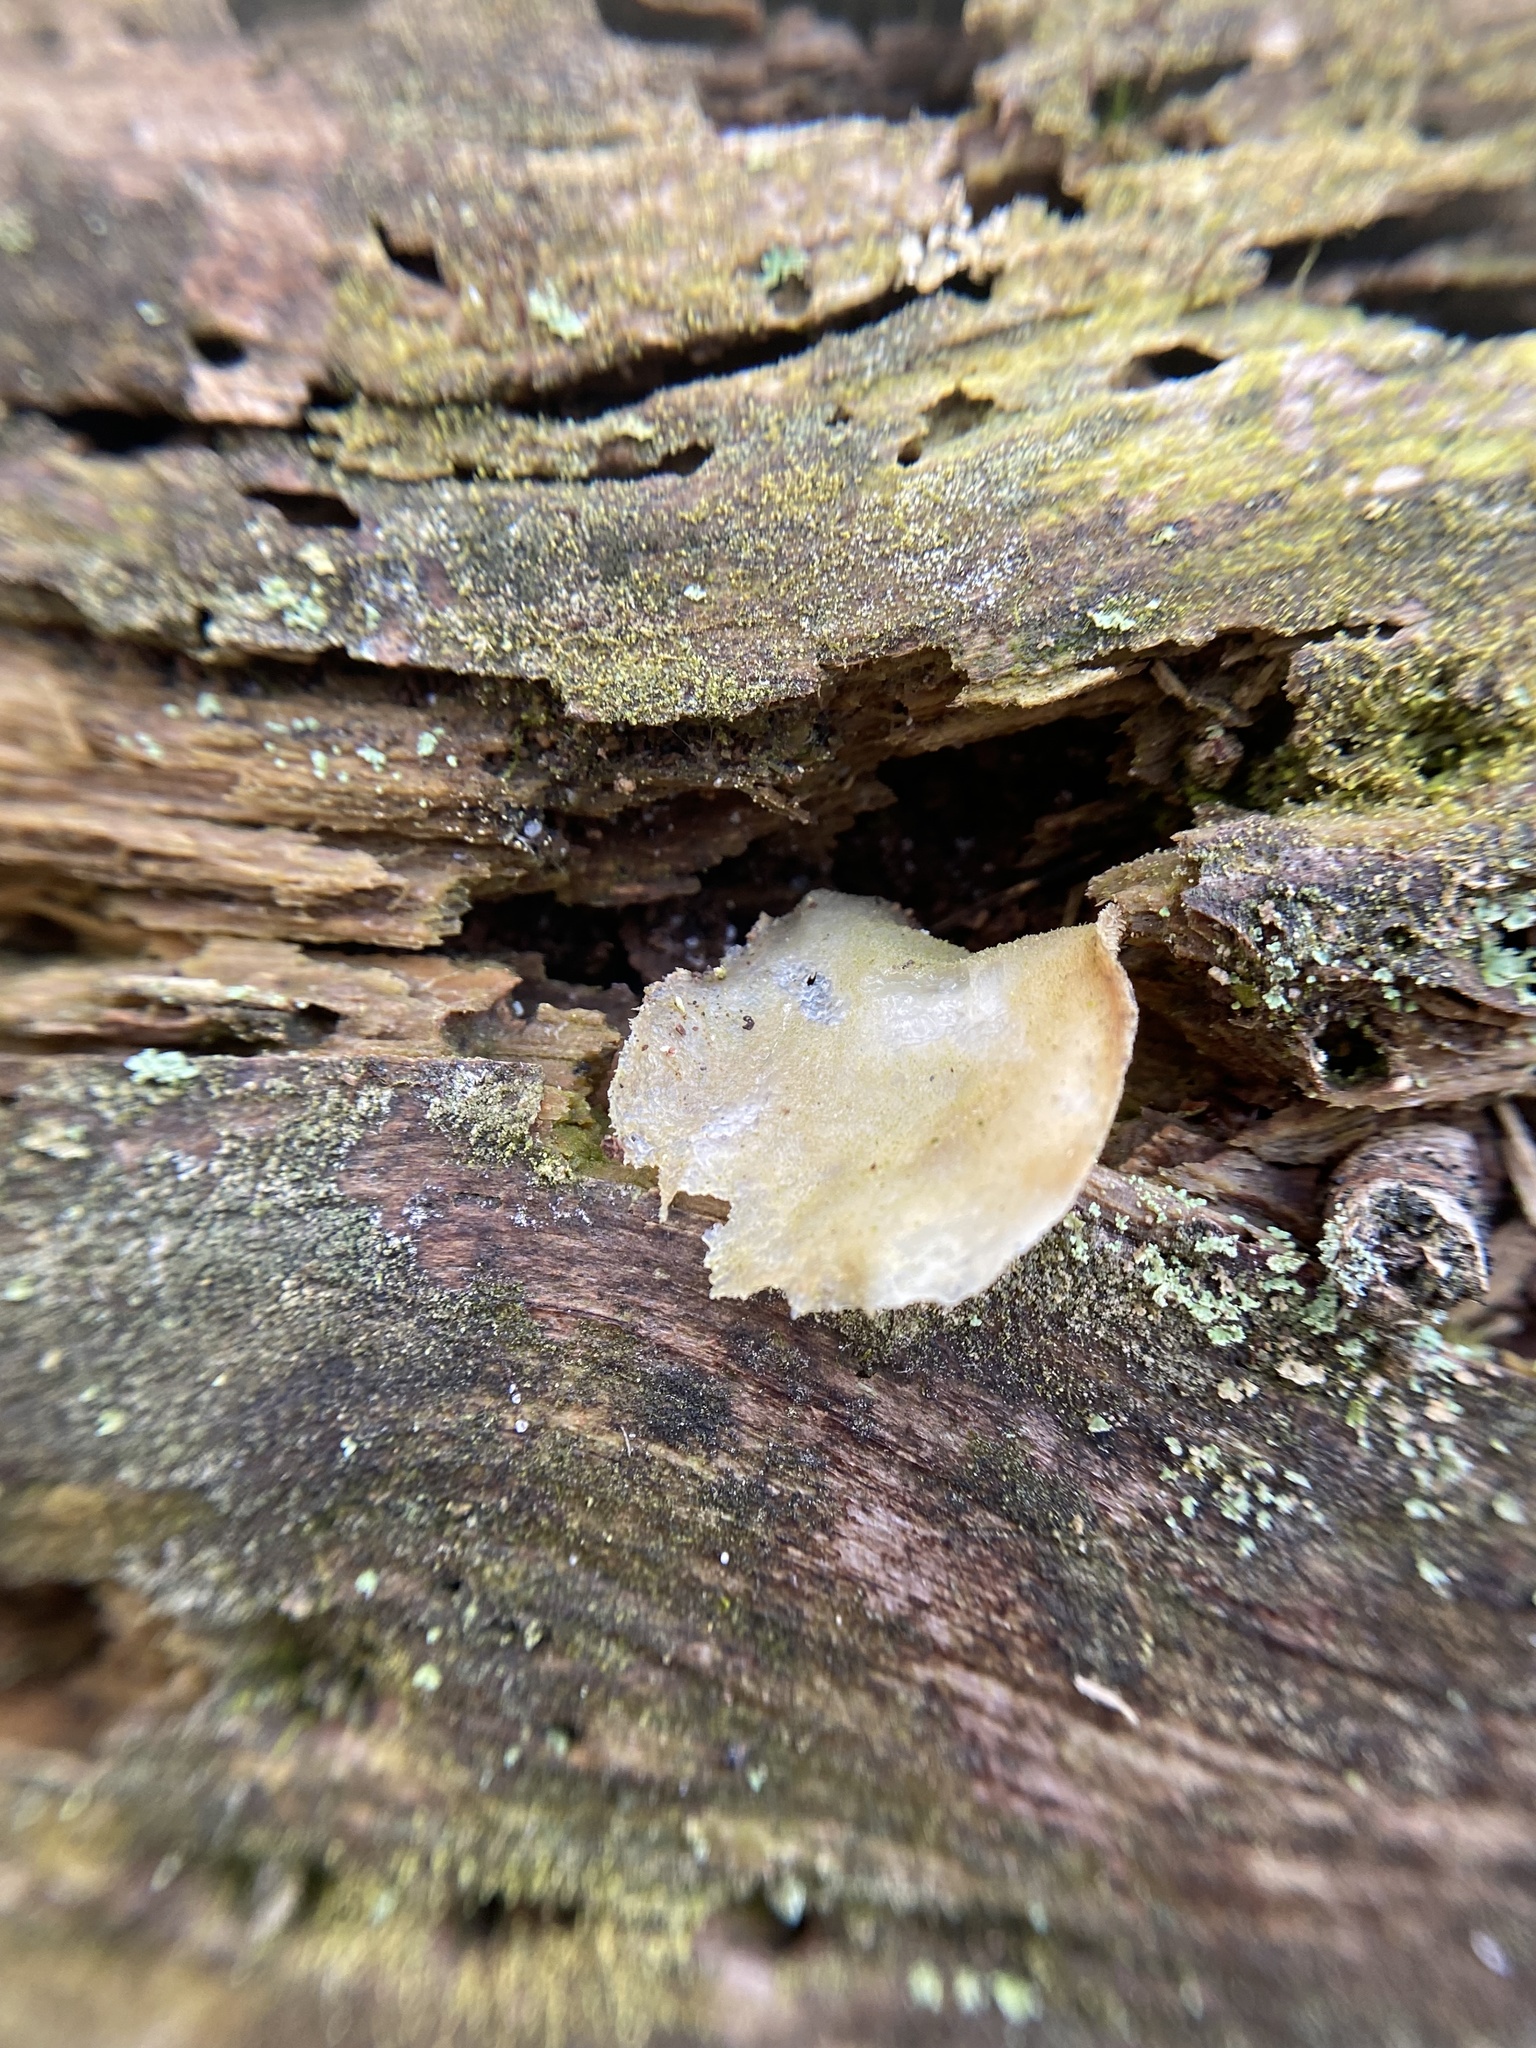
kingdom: Fungi
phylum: Basidiomycota
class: Agaricomycetes
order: Auriculariales
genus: Pseudohydnum
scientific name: Pseudohydnum gelatinosum
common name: Jelly tongue
